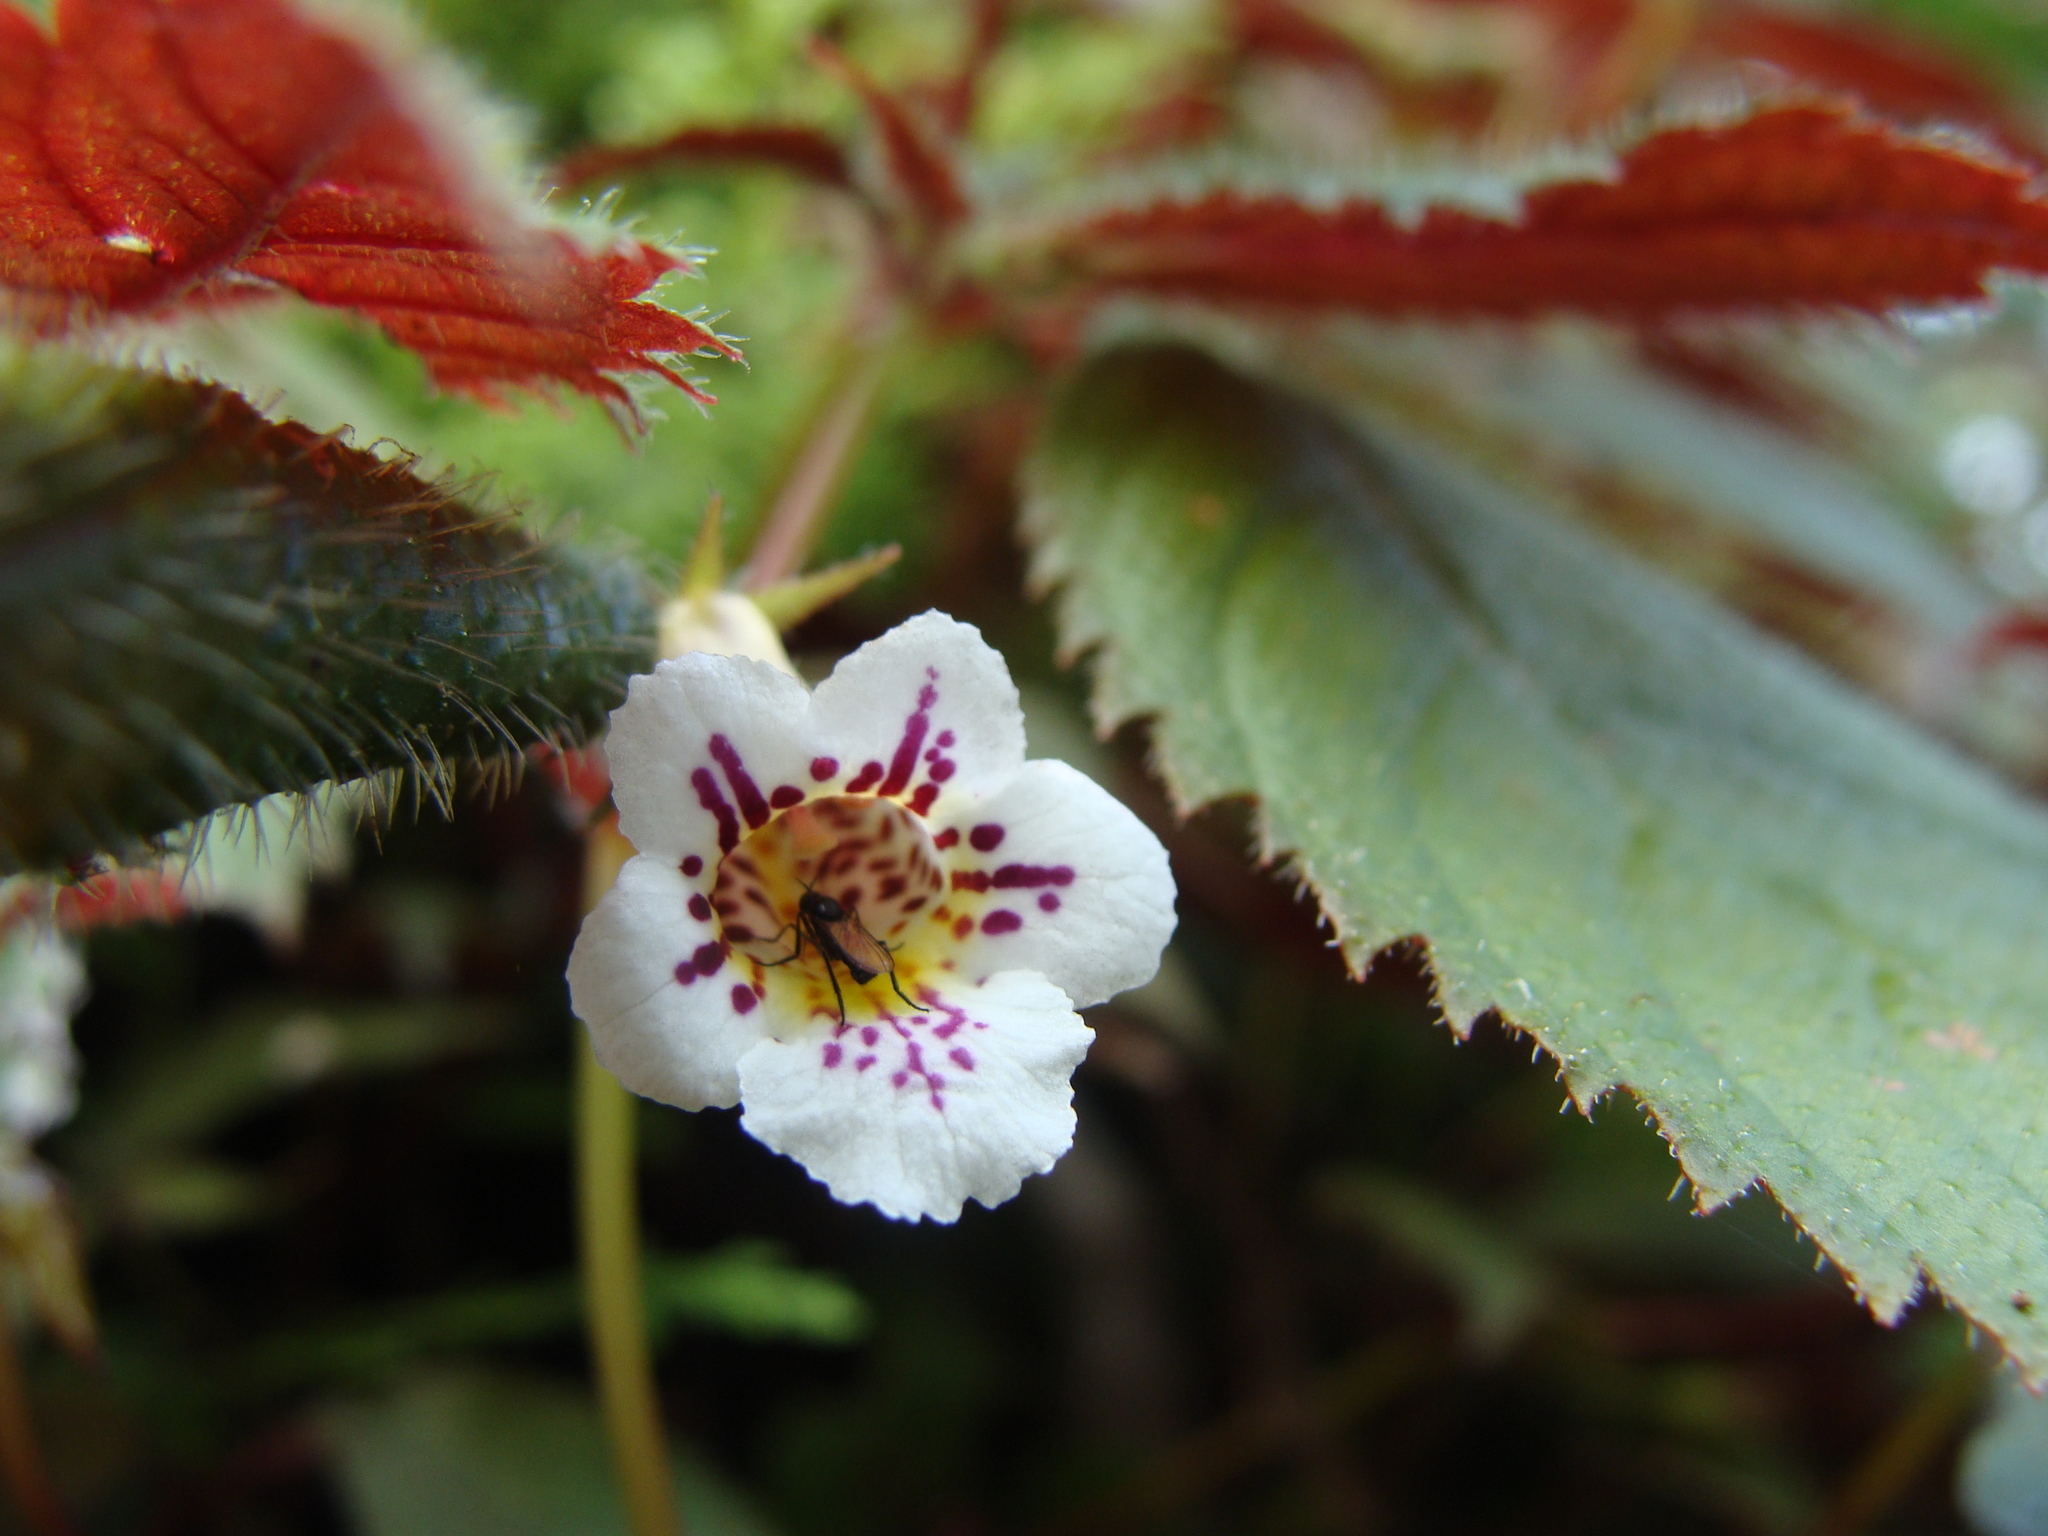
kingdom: Plantae
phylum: Tracheophyta
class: Magnoliopsida
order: Lamiales
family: Gesneriaceae
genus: Achimenes
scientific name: Achimenes candida
